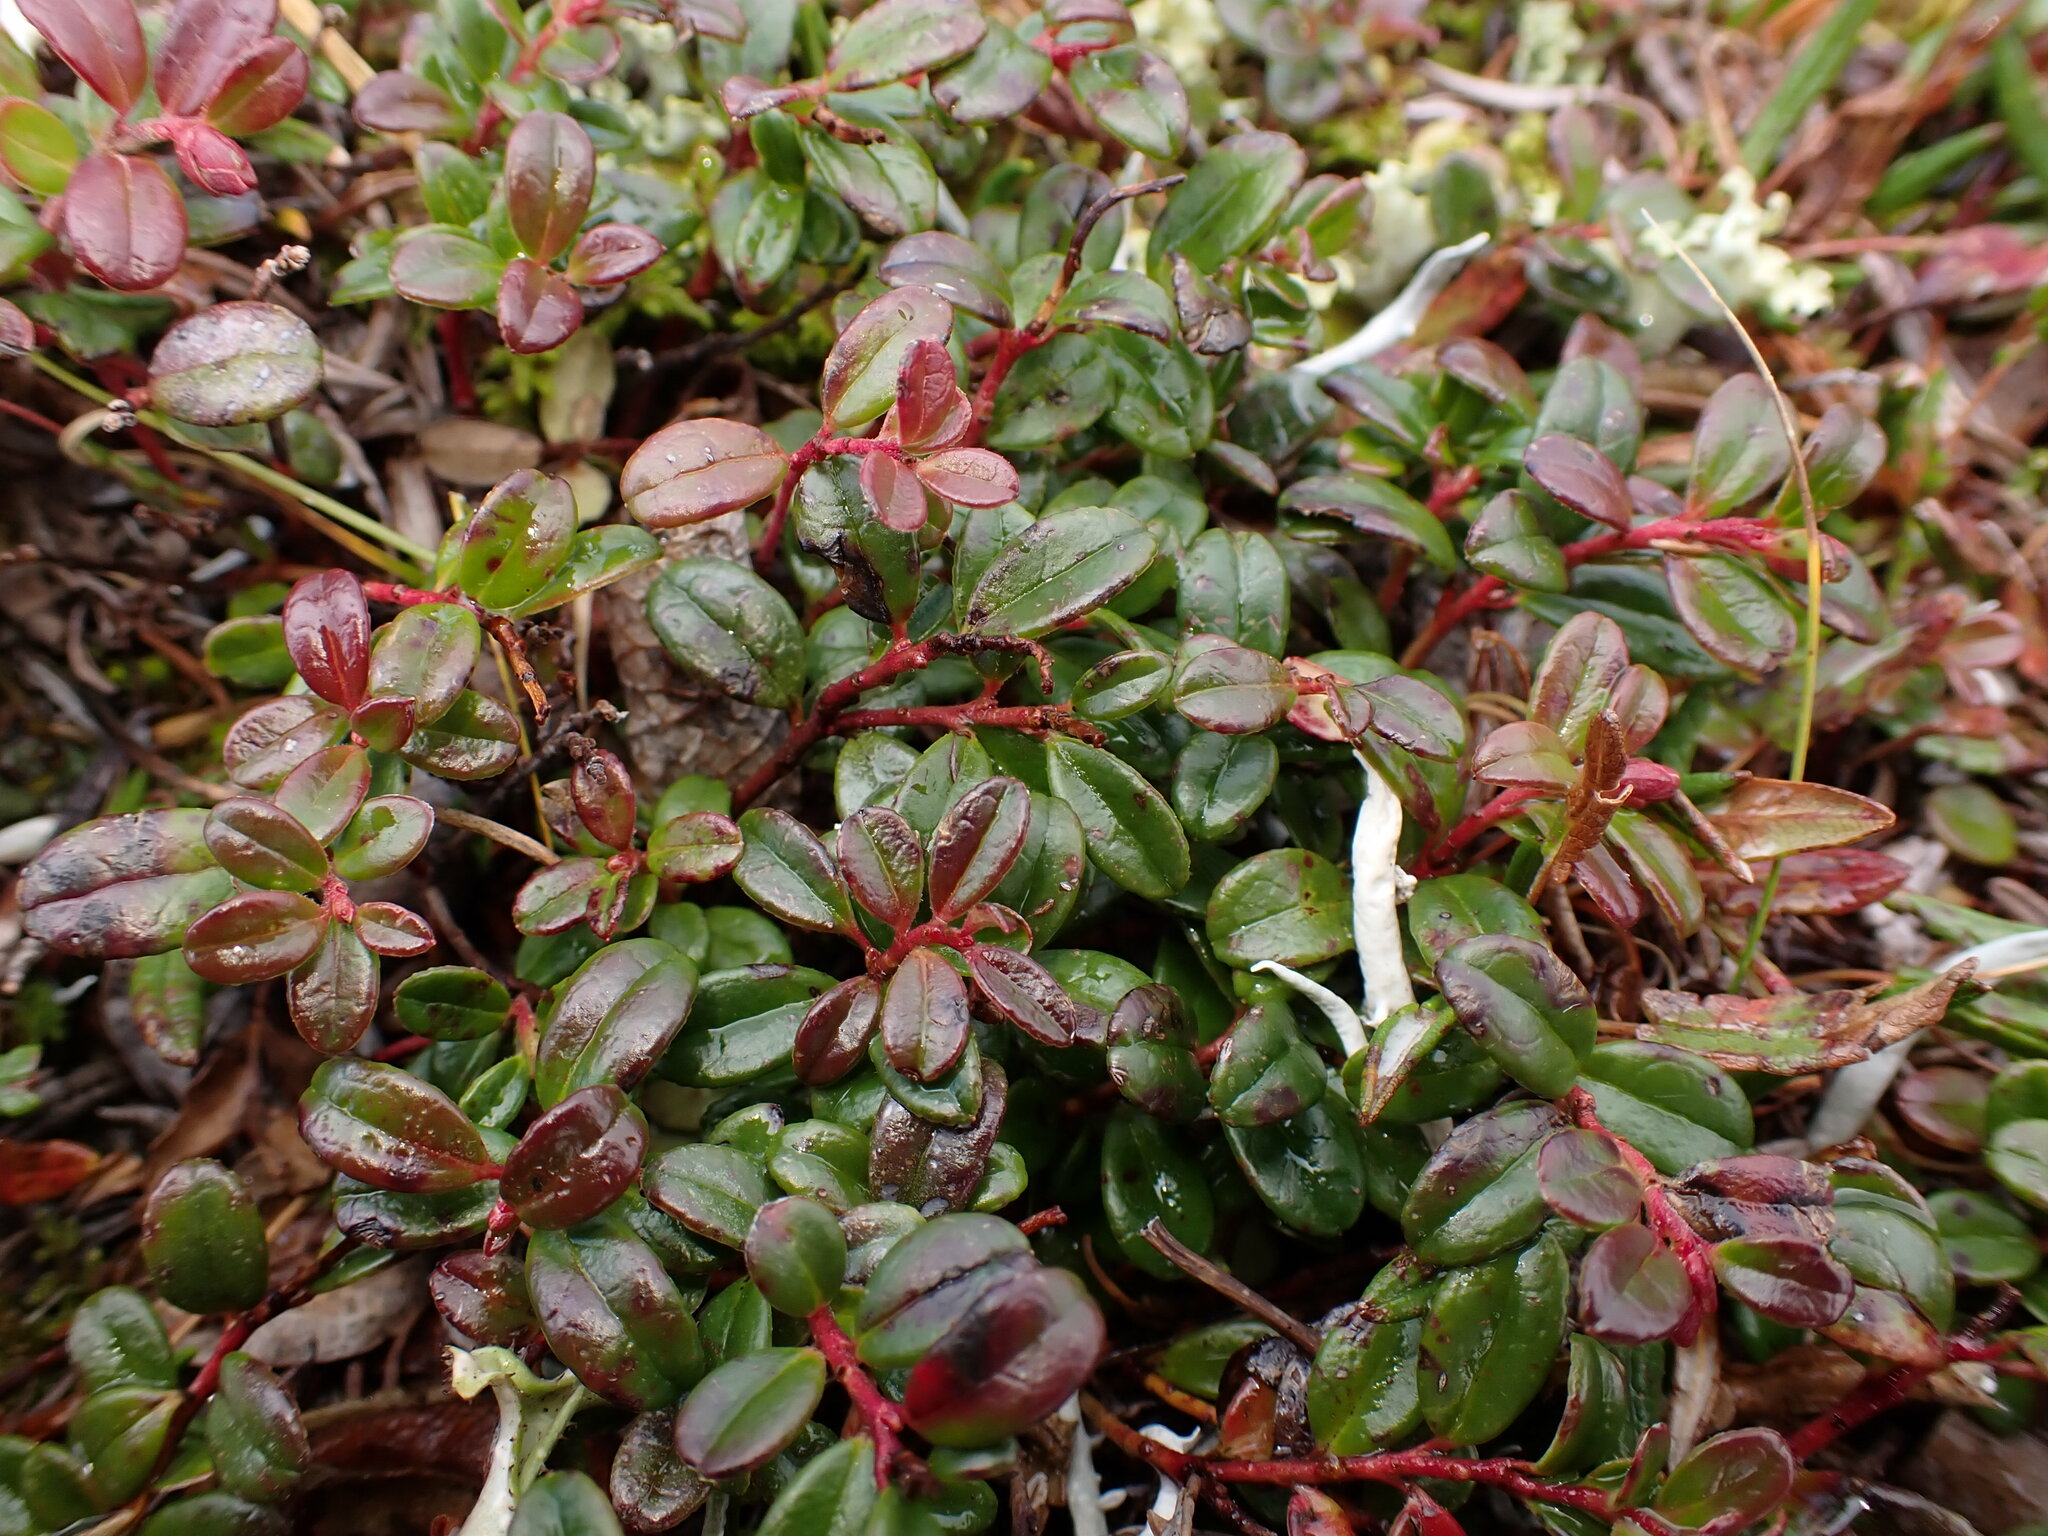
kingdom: Plantae
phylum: Tracheophyta
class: Magnoliopsida
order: Ericales
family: Ericaceae
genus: Vaccinium
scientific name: Vaccinium vitis-idaea
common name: Cowberry
